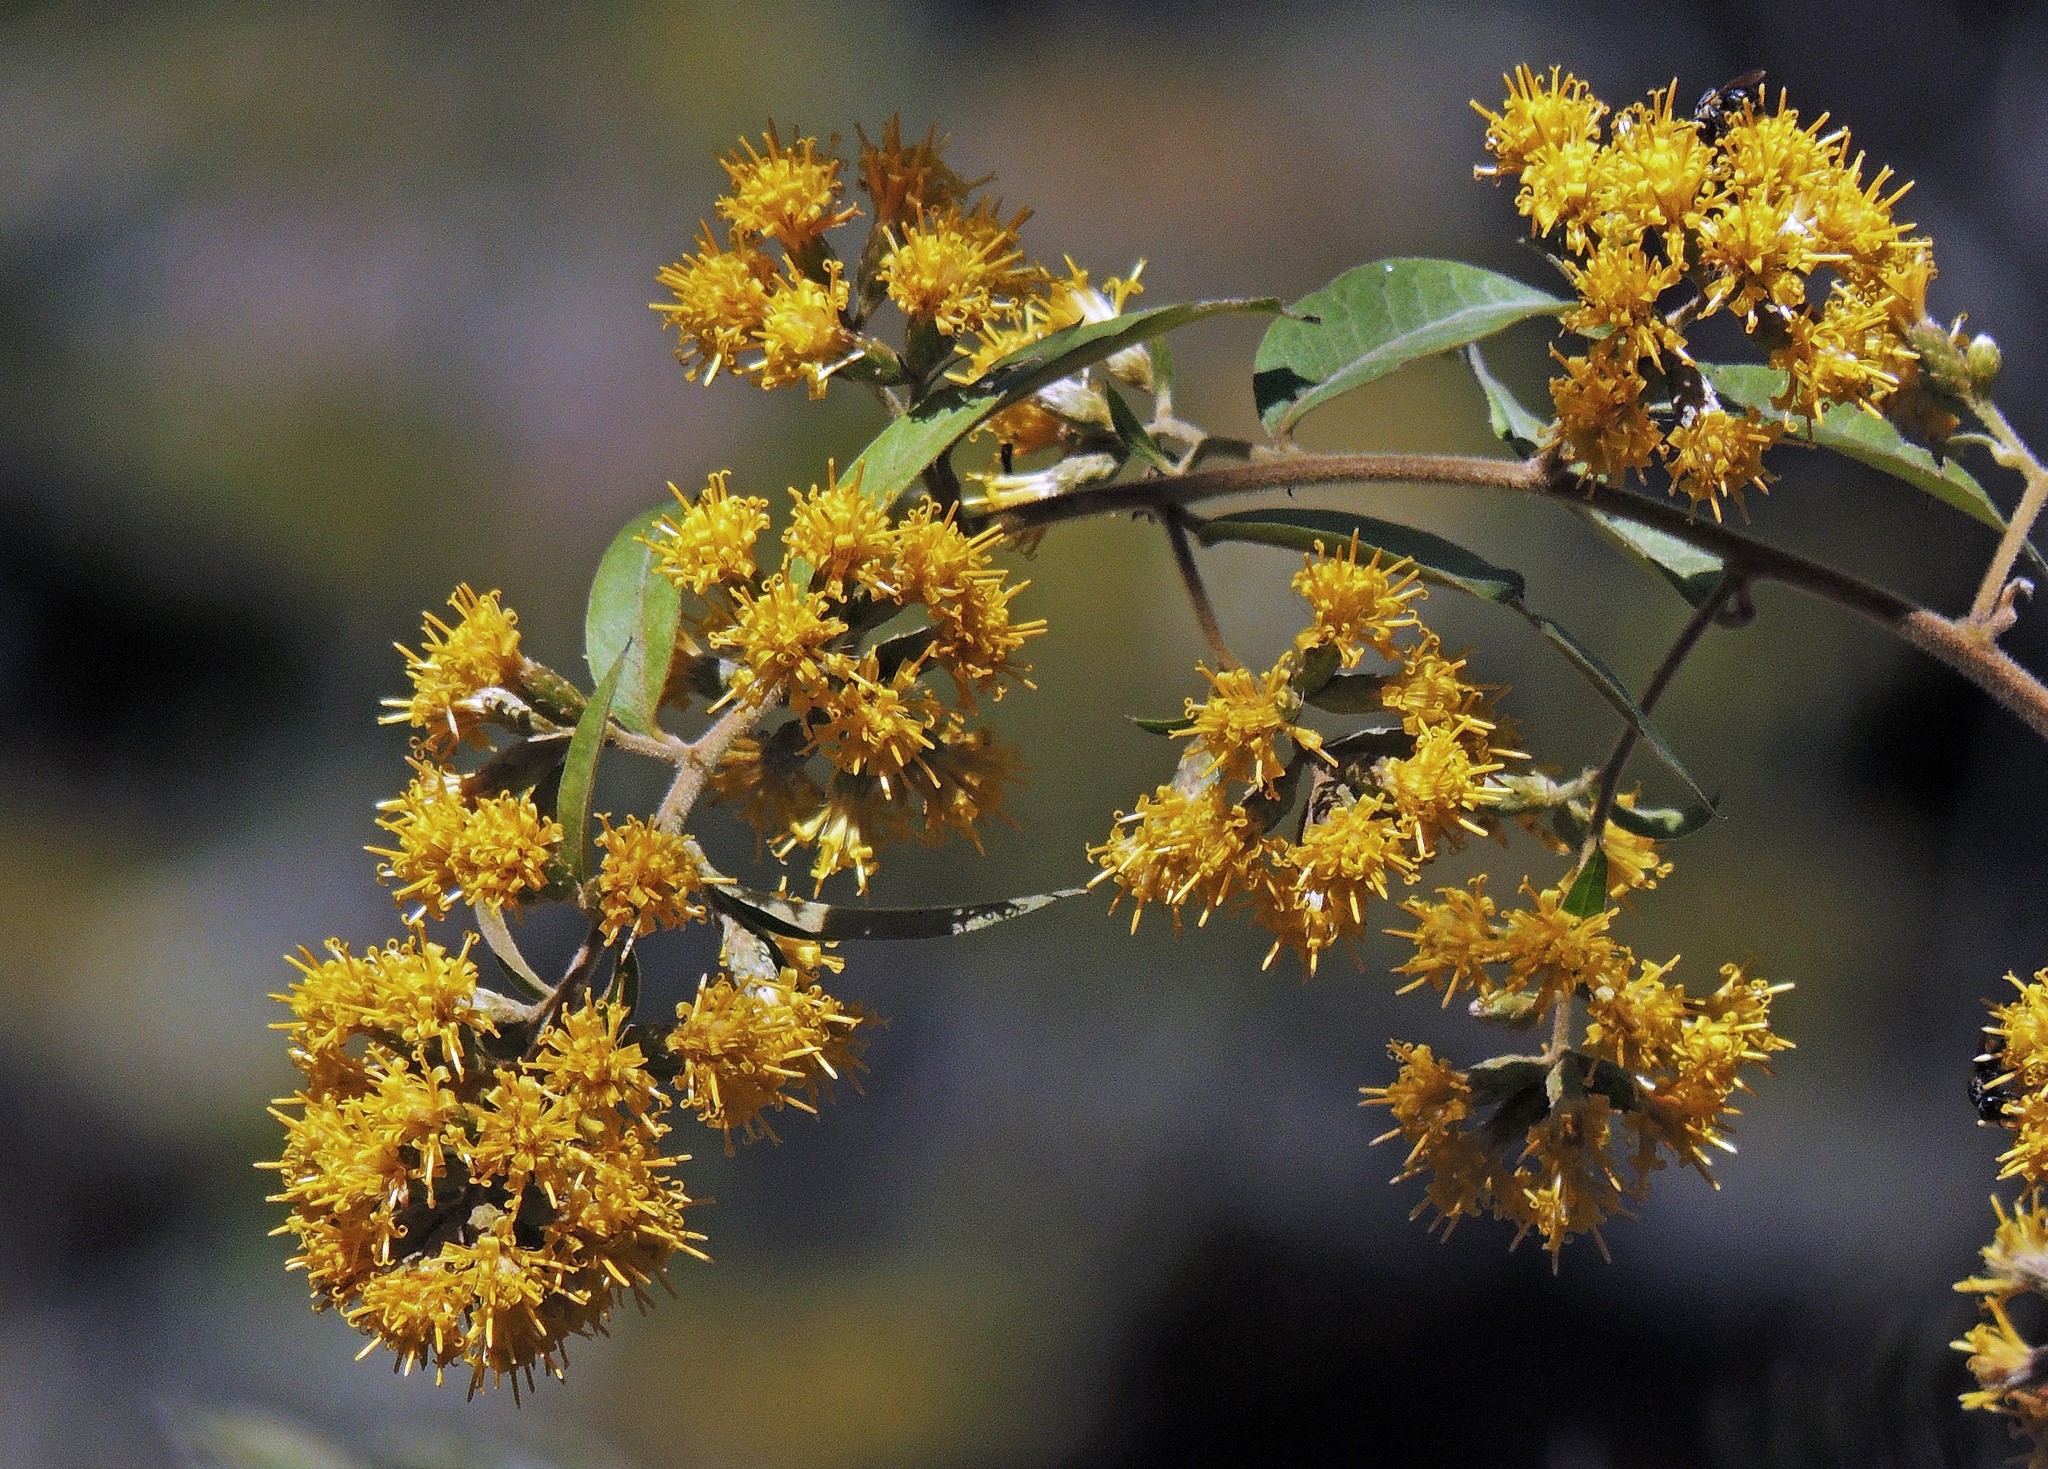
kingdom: Plantae
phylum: Tracheophyta
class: Magnoliopsida
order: Asterales
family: Asteraceae
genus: Trixis
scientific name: Trixis proustioides
